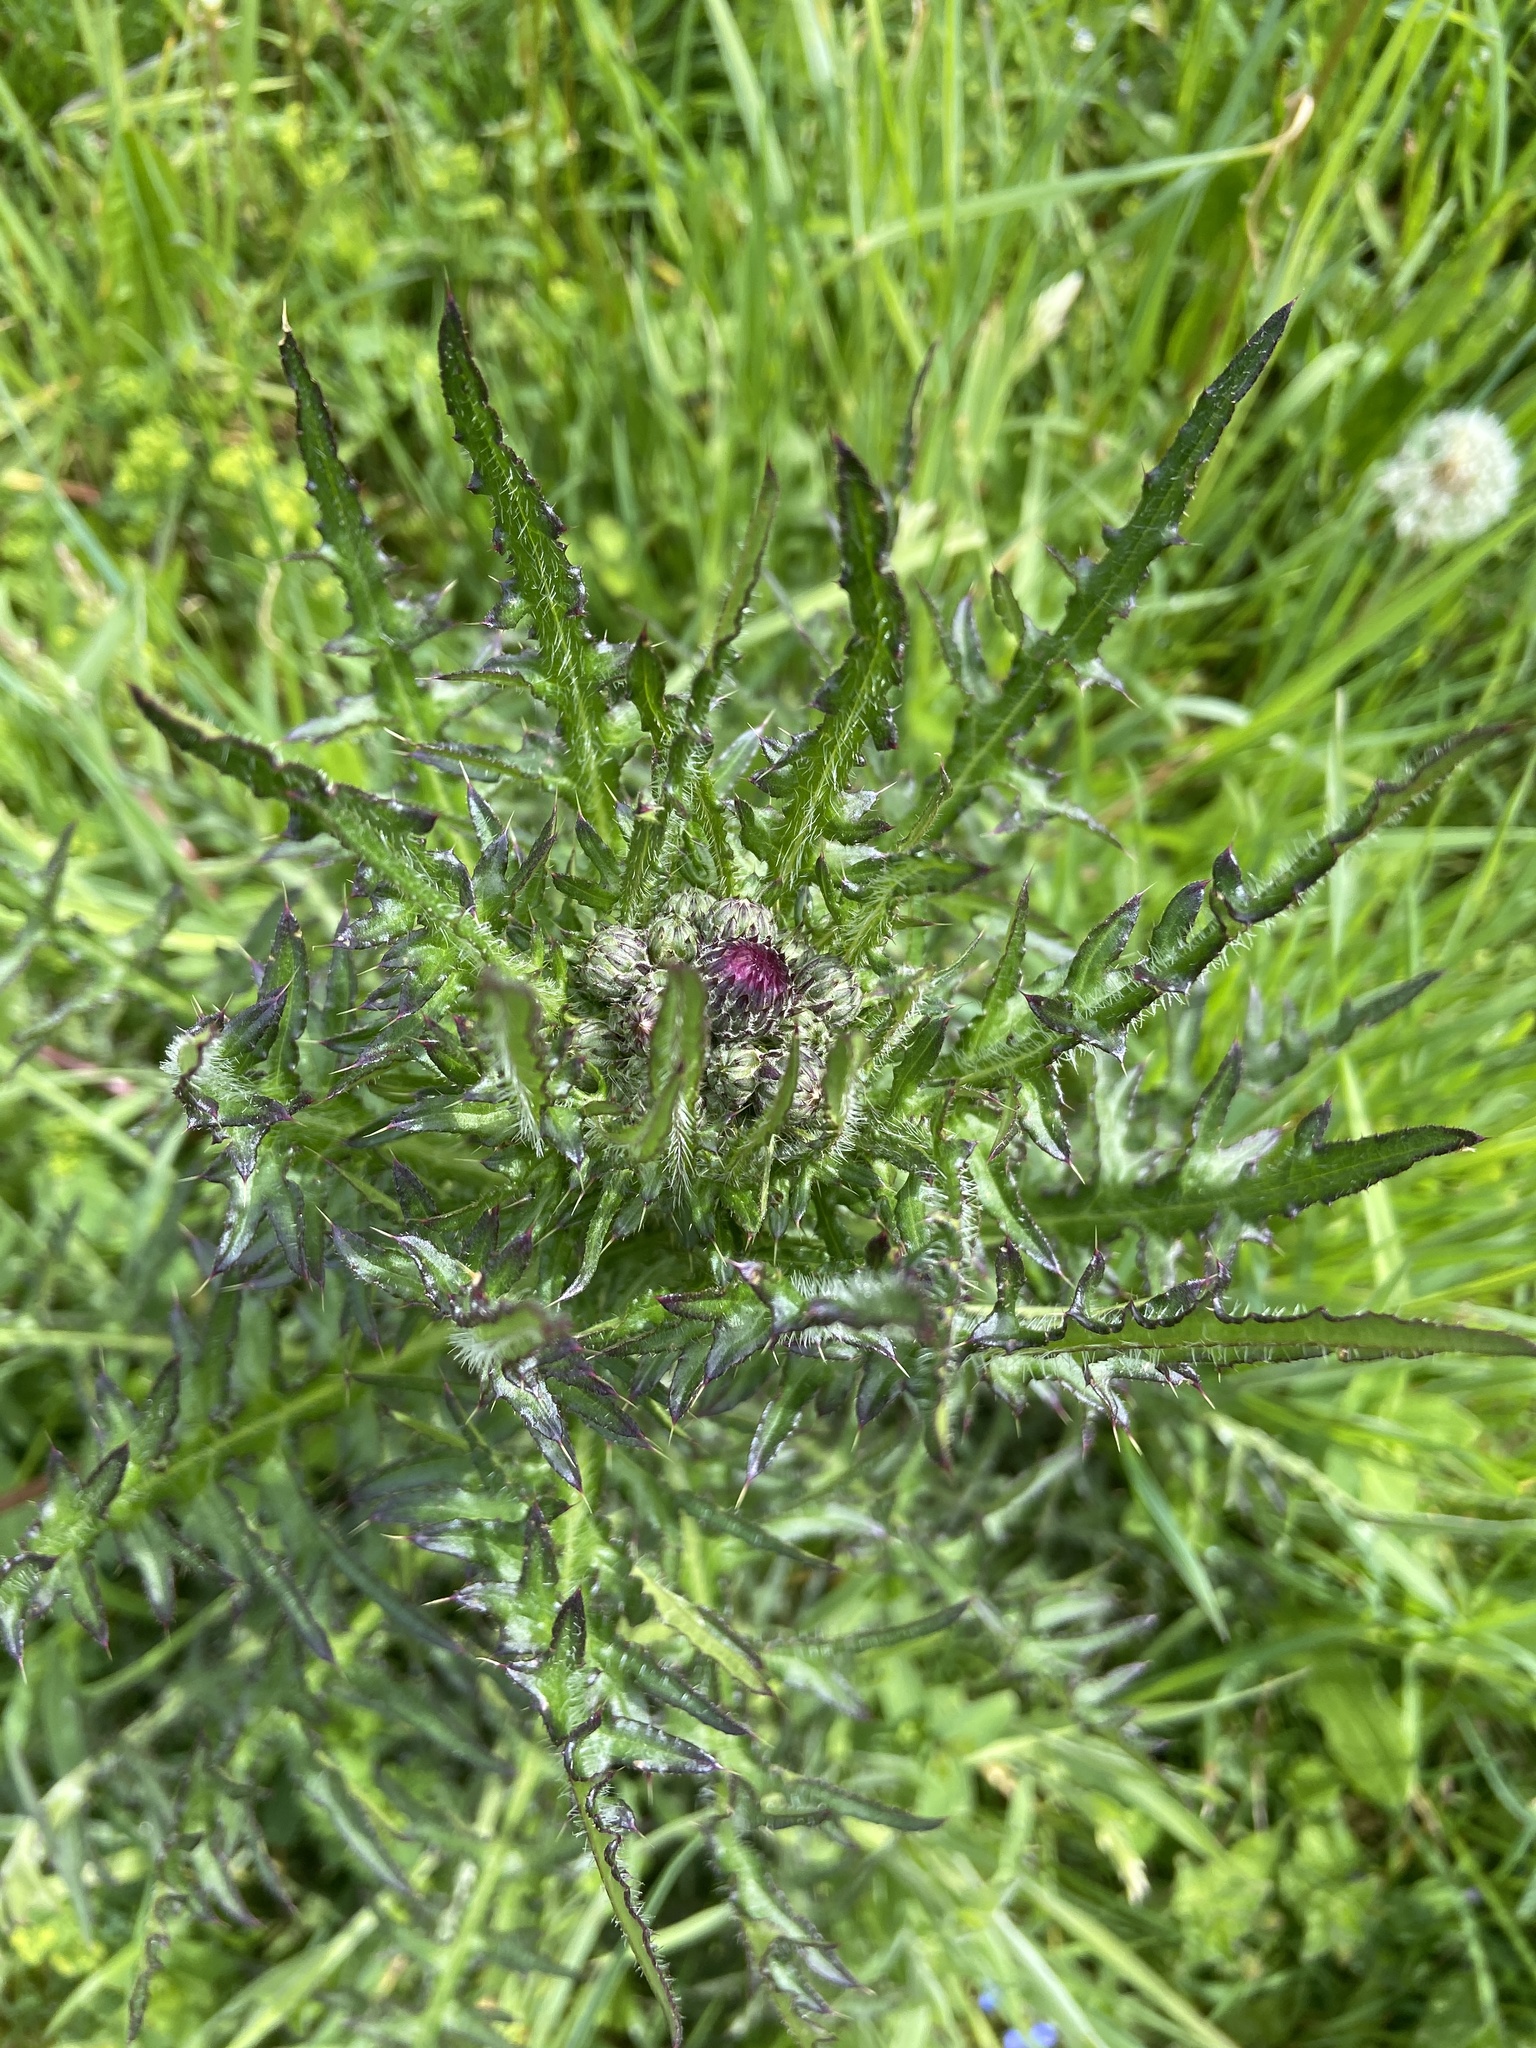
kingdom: Plantae
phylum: Tracheophyta
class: Magnoliopsida
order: Asterales
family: Asteraceae
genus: Cirsium
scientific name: Cirsium palustre
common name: Marsh thistle
